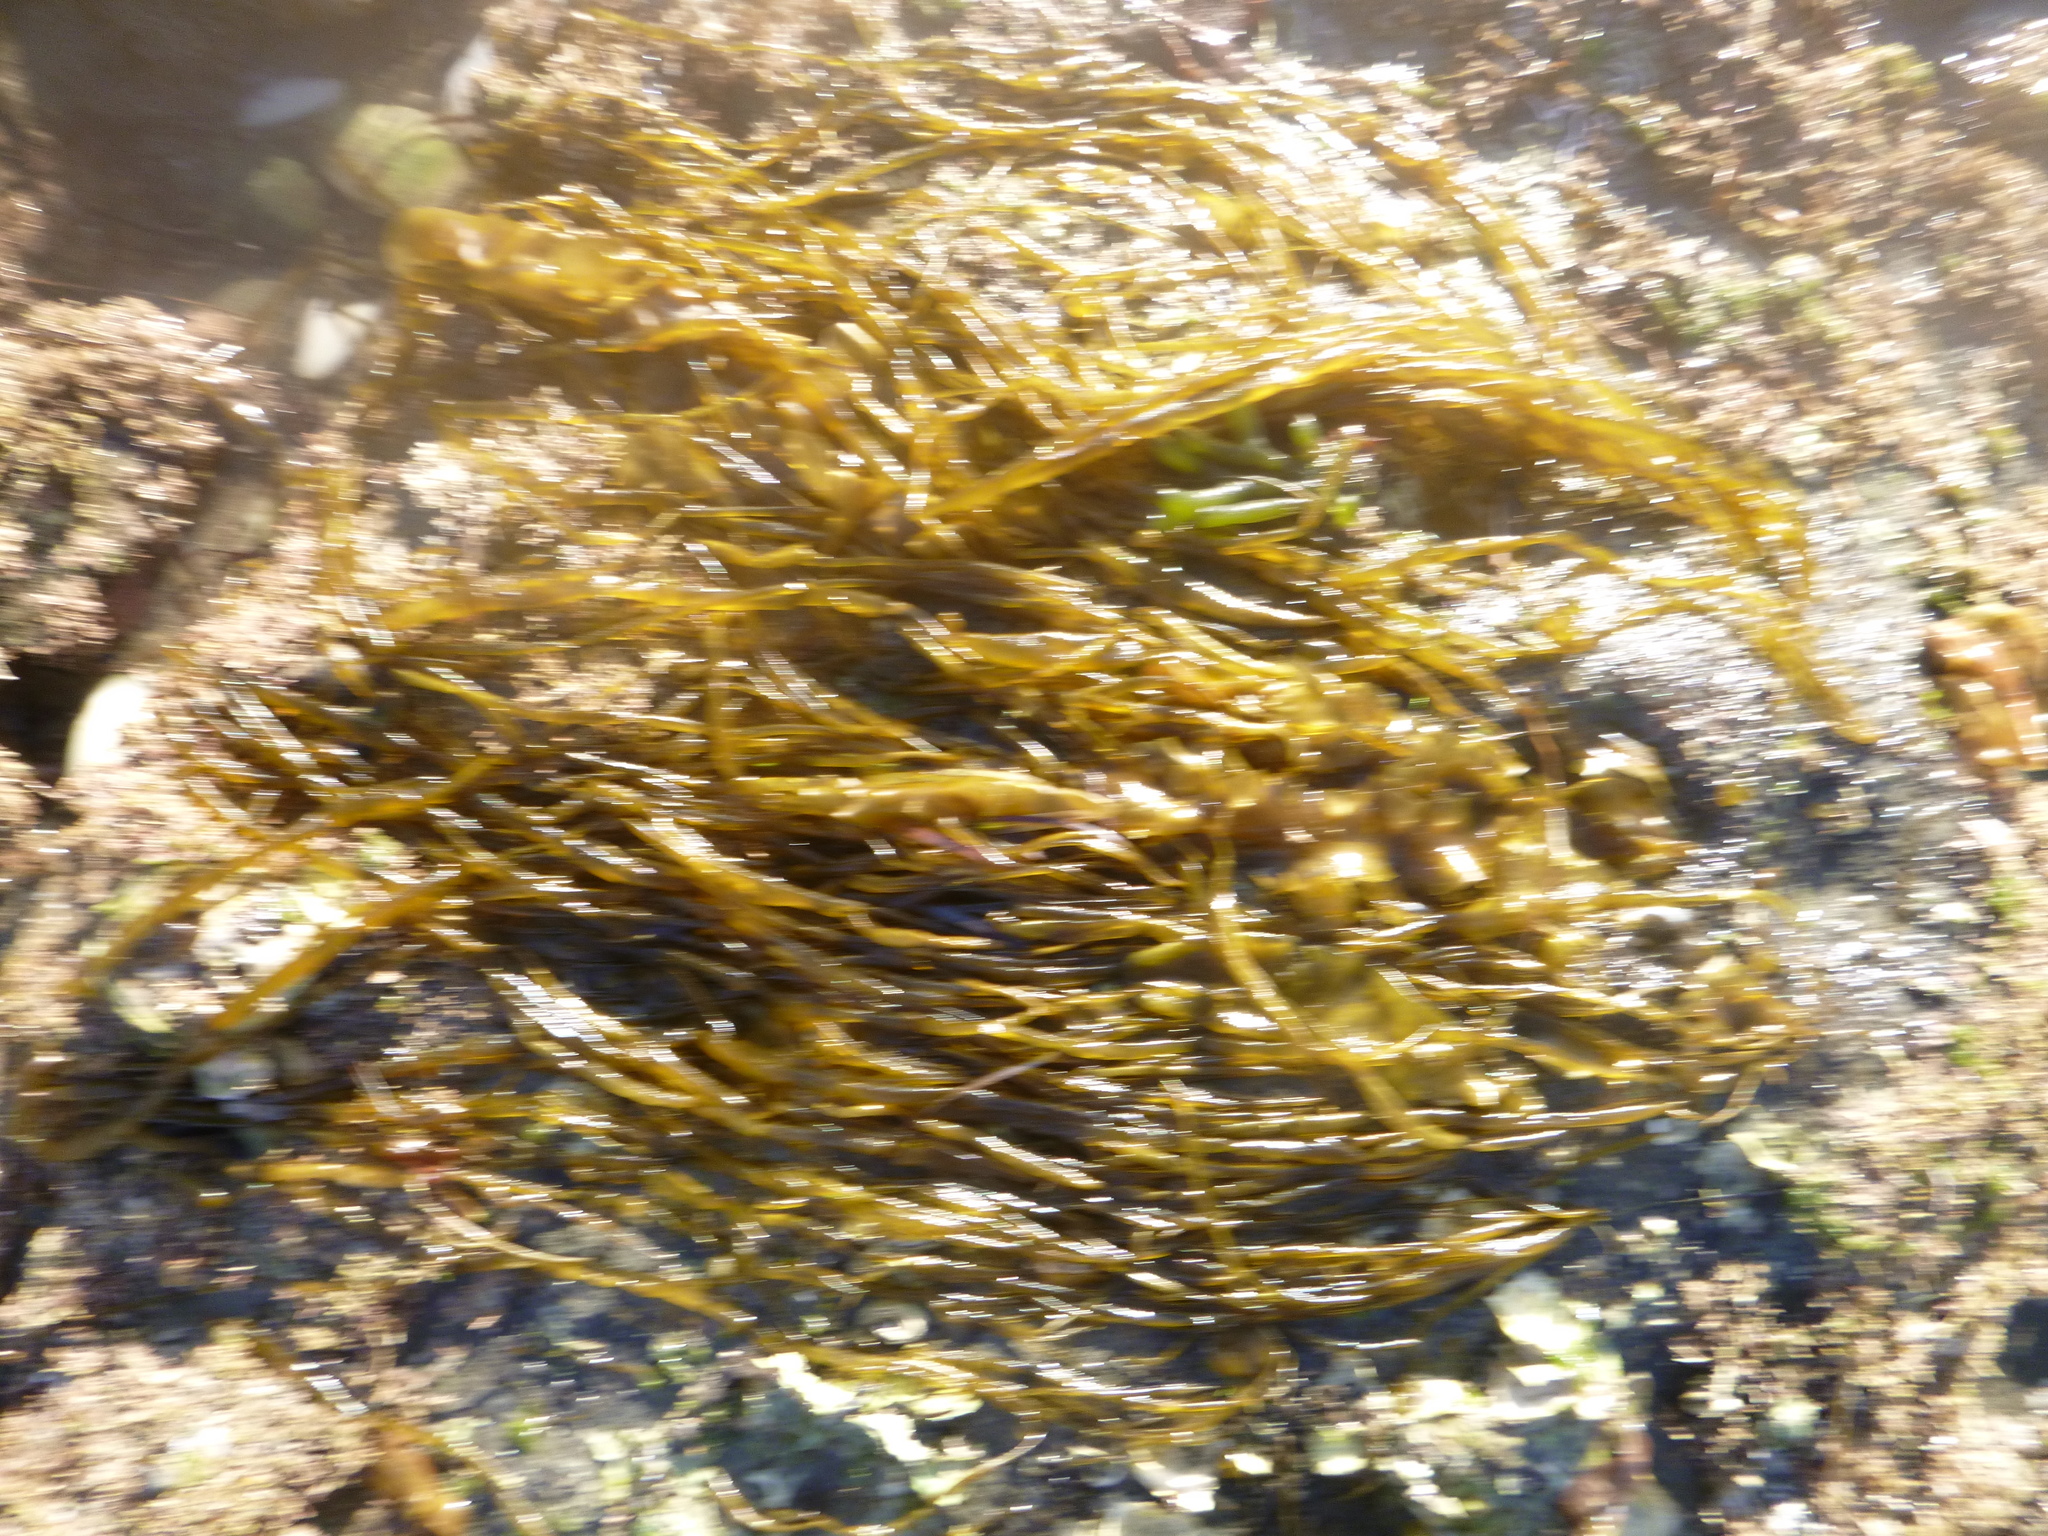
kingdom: Chromista
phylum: Ochrophyta
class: Phaeophyceae
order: Scytosiphonales
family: Scytosiphonaceae
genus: Scytosiphon
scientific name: Scytosiphon lomentaria
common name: Beanweed
